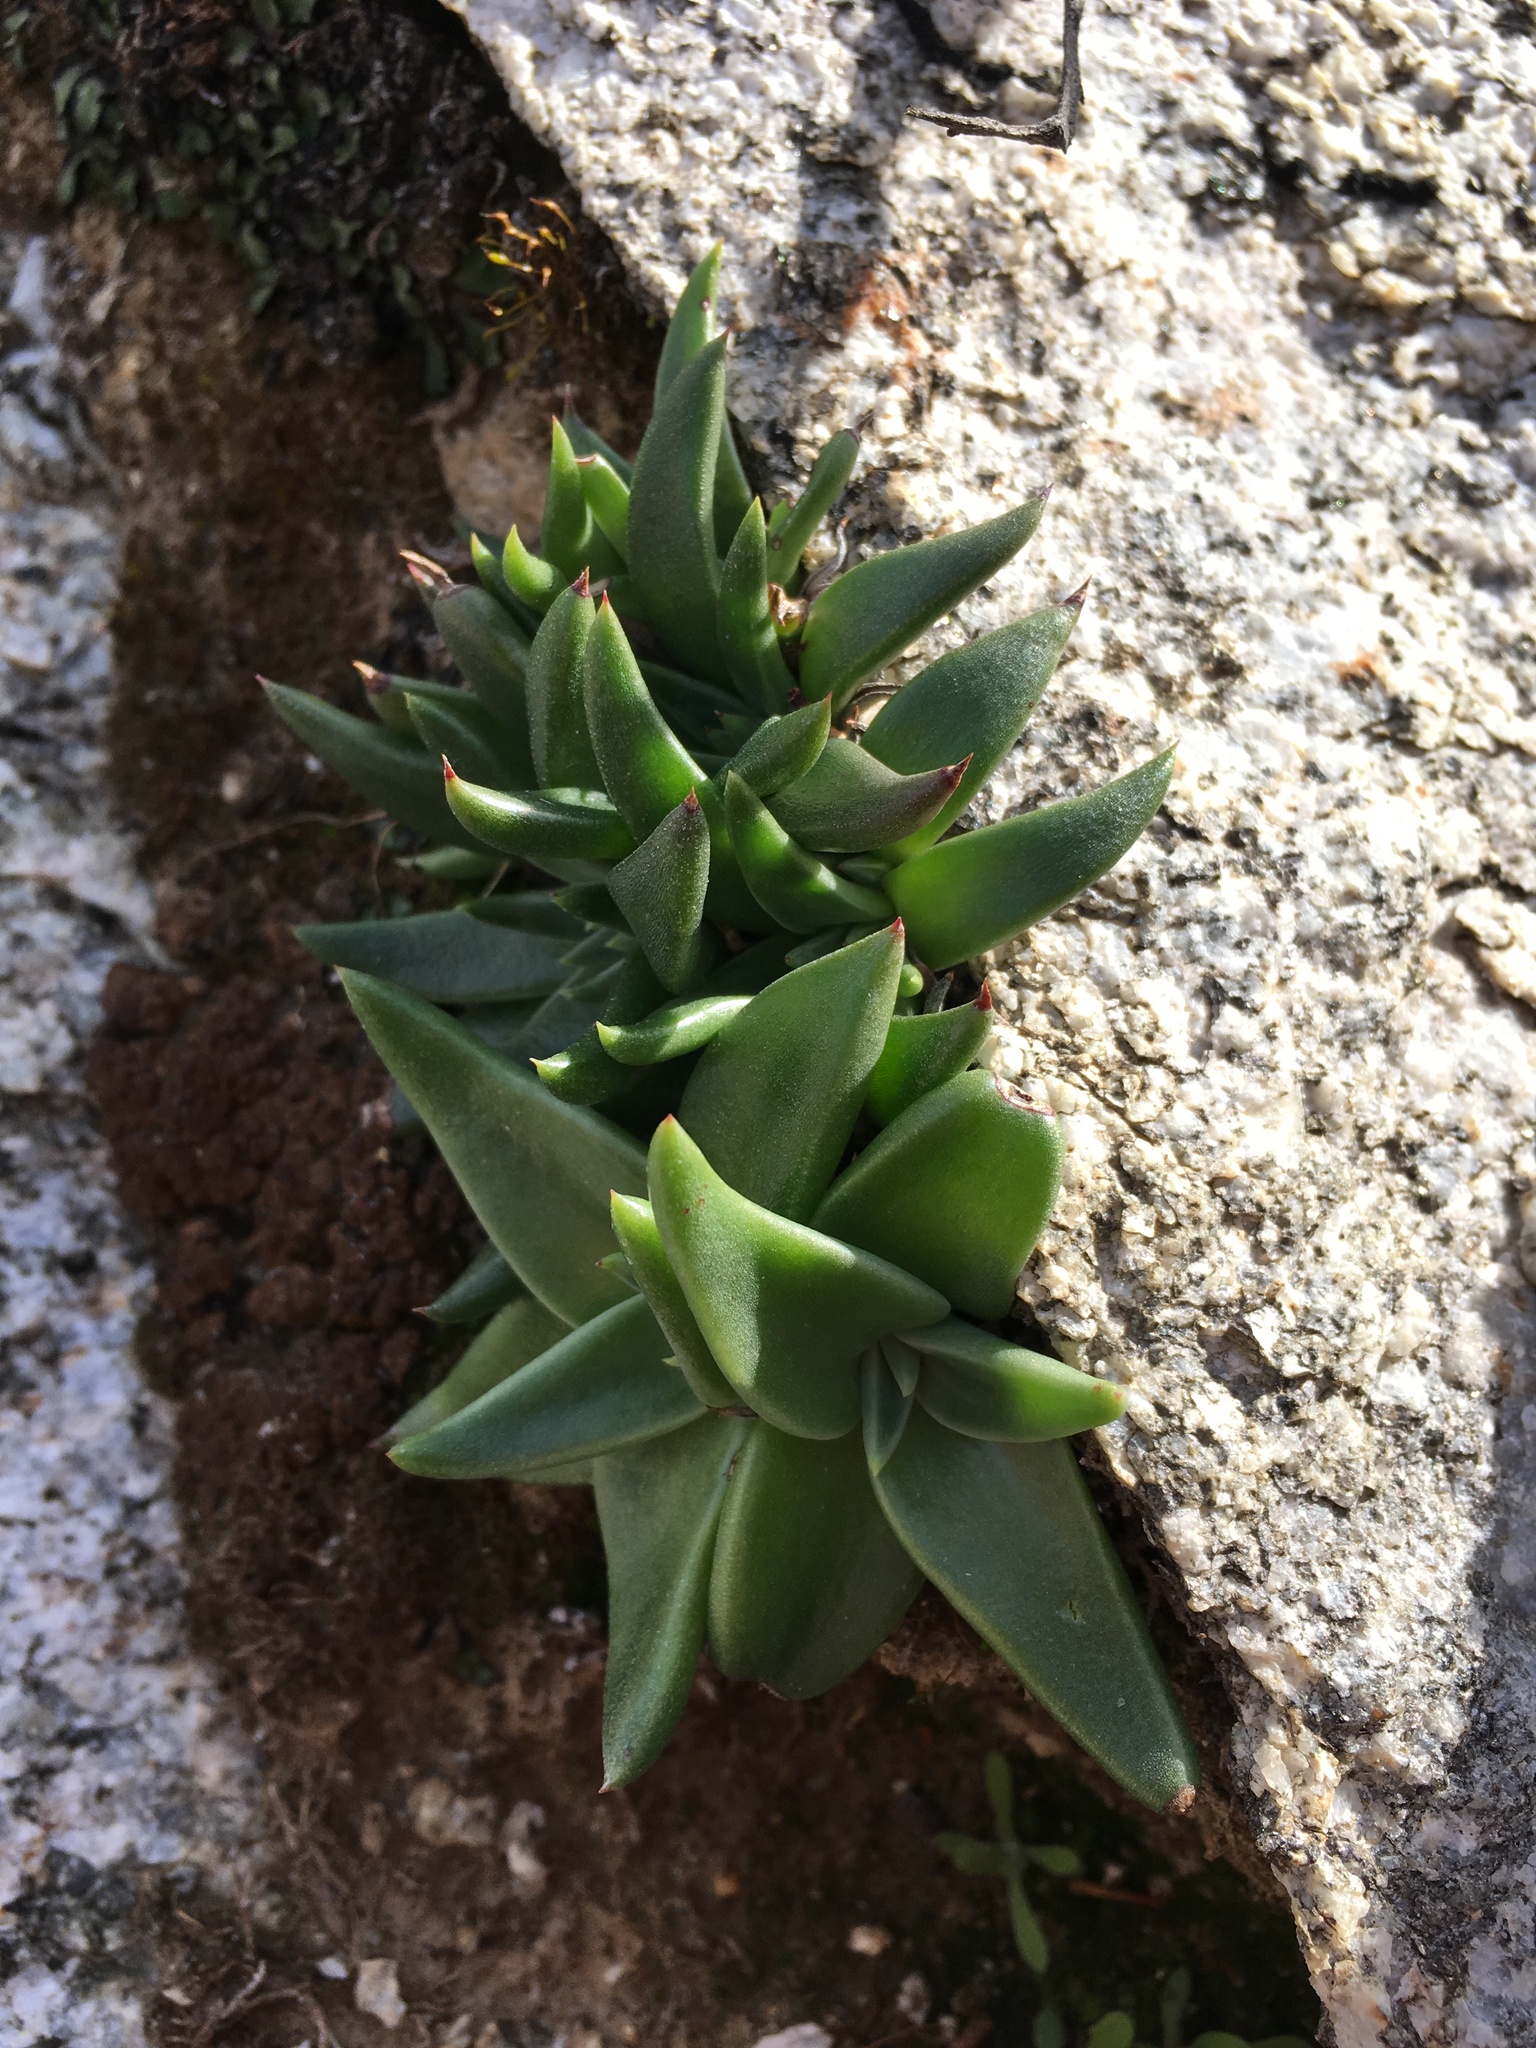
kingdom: Plantae
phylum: Tracheophyta
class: Magnoliopsida
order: Saxifragales
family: Crassulaceae
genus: Dudleya
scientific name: Dudleya saxosa
